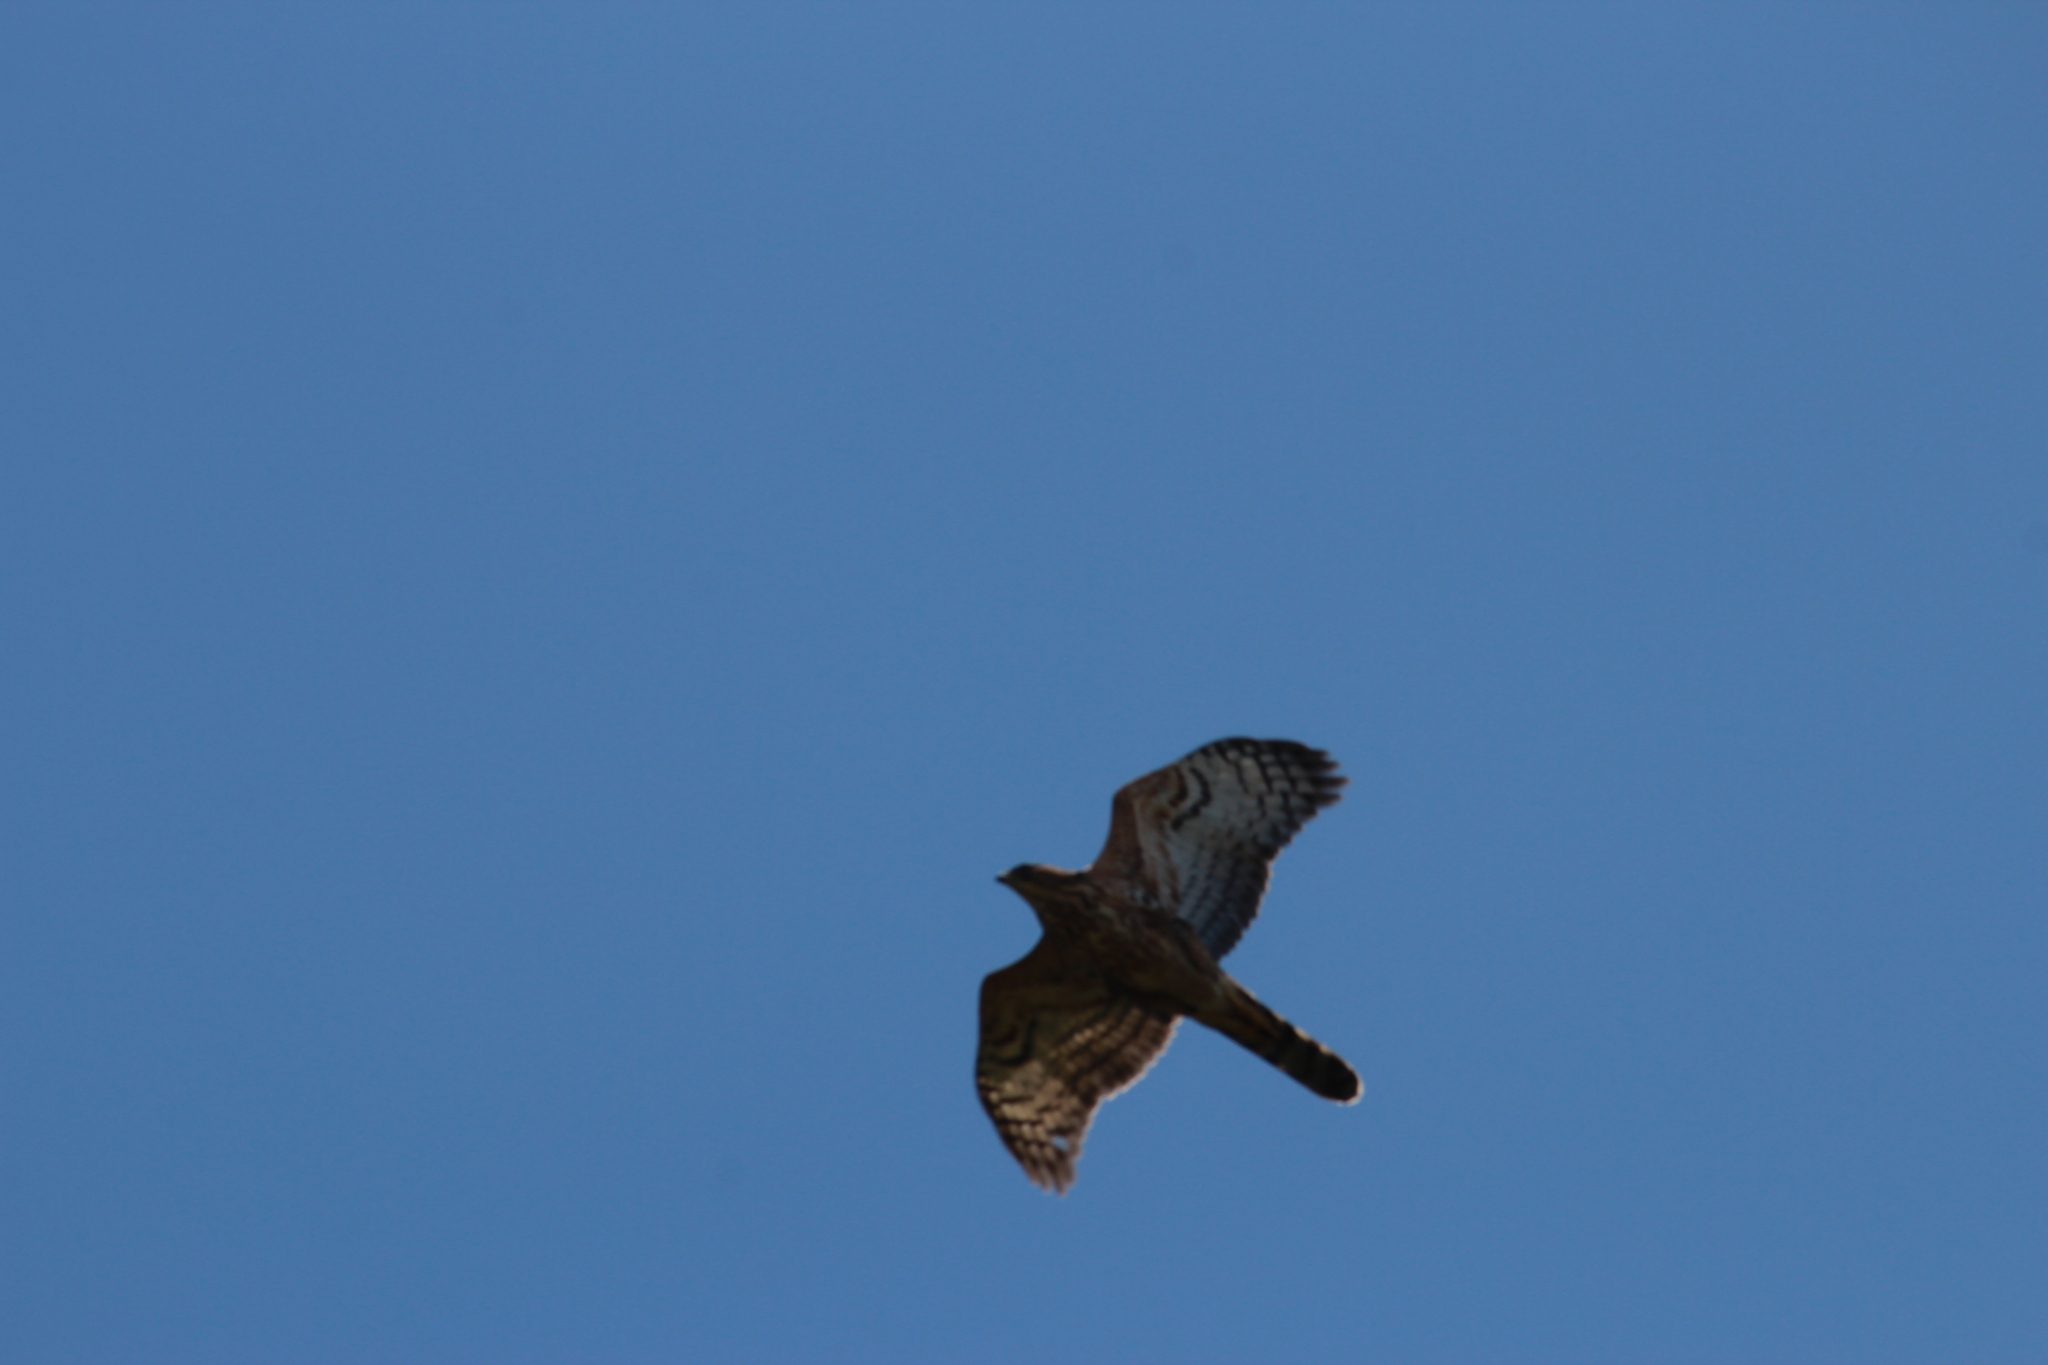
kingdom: Animalia
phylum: Chordata
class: Aves
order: Accipitriformes
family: Accipitridae
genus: Accipiter
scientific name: Accipiter melanoleucus
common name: Black sparrowhawk
